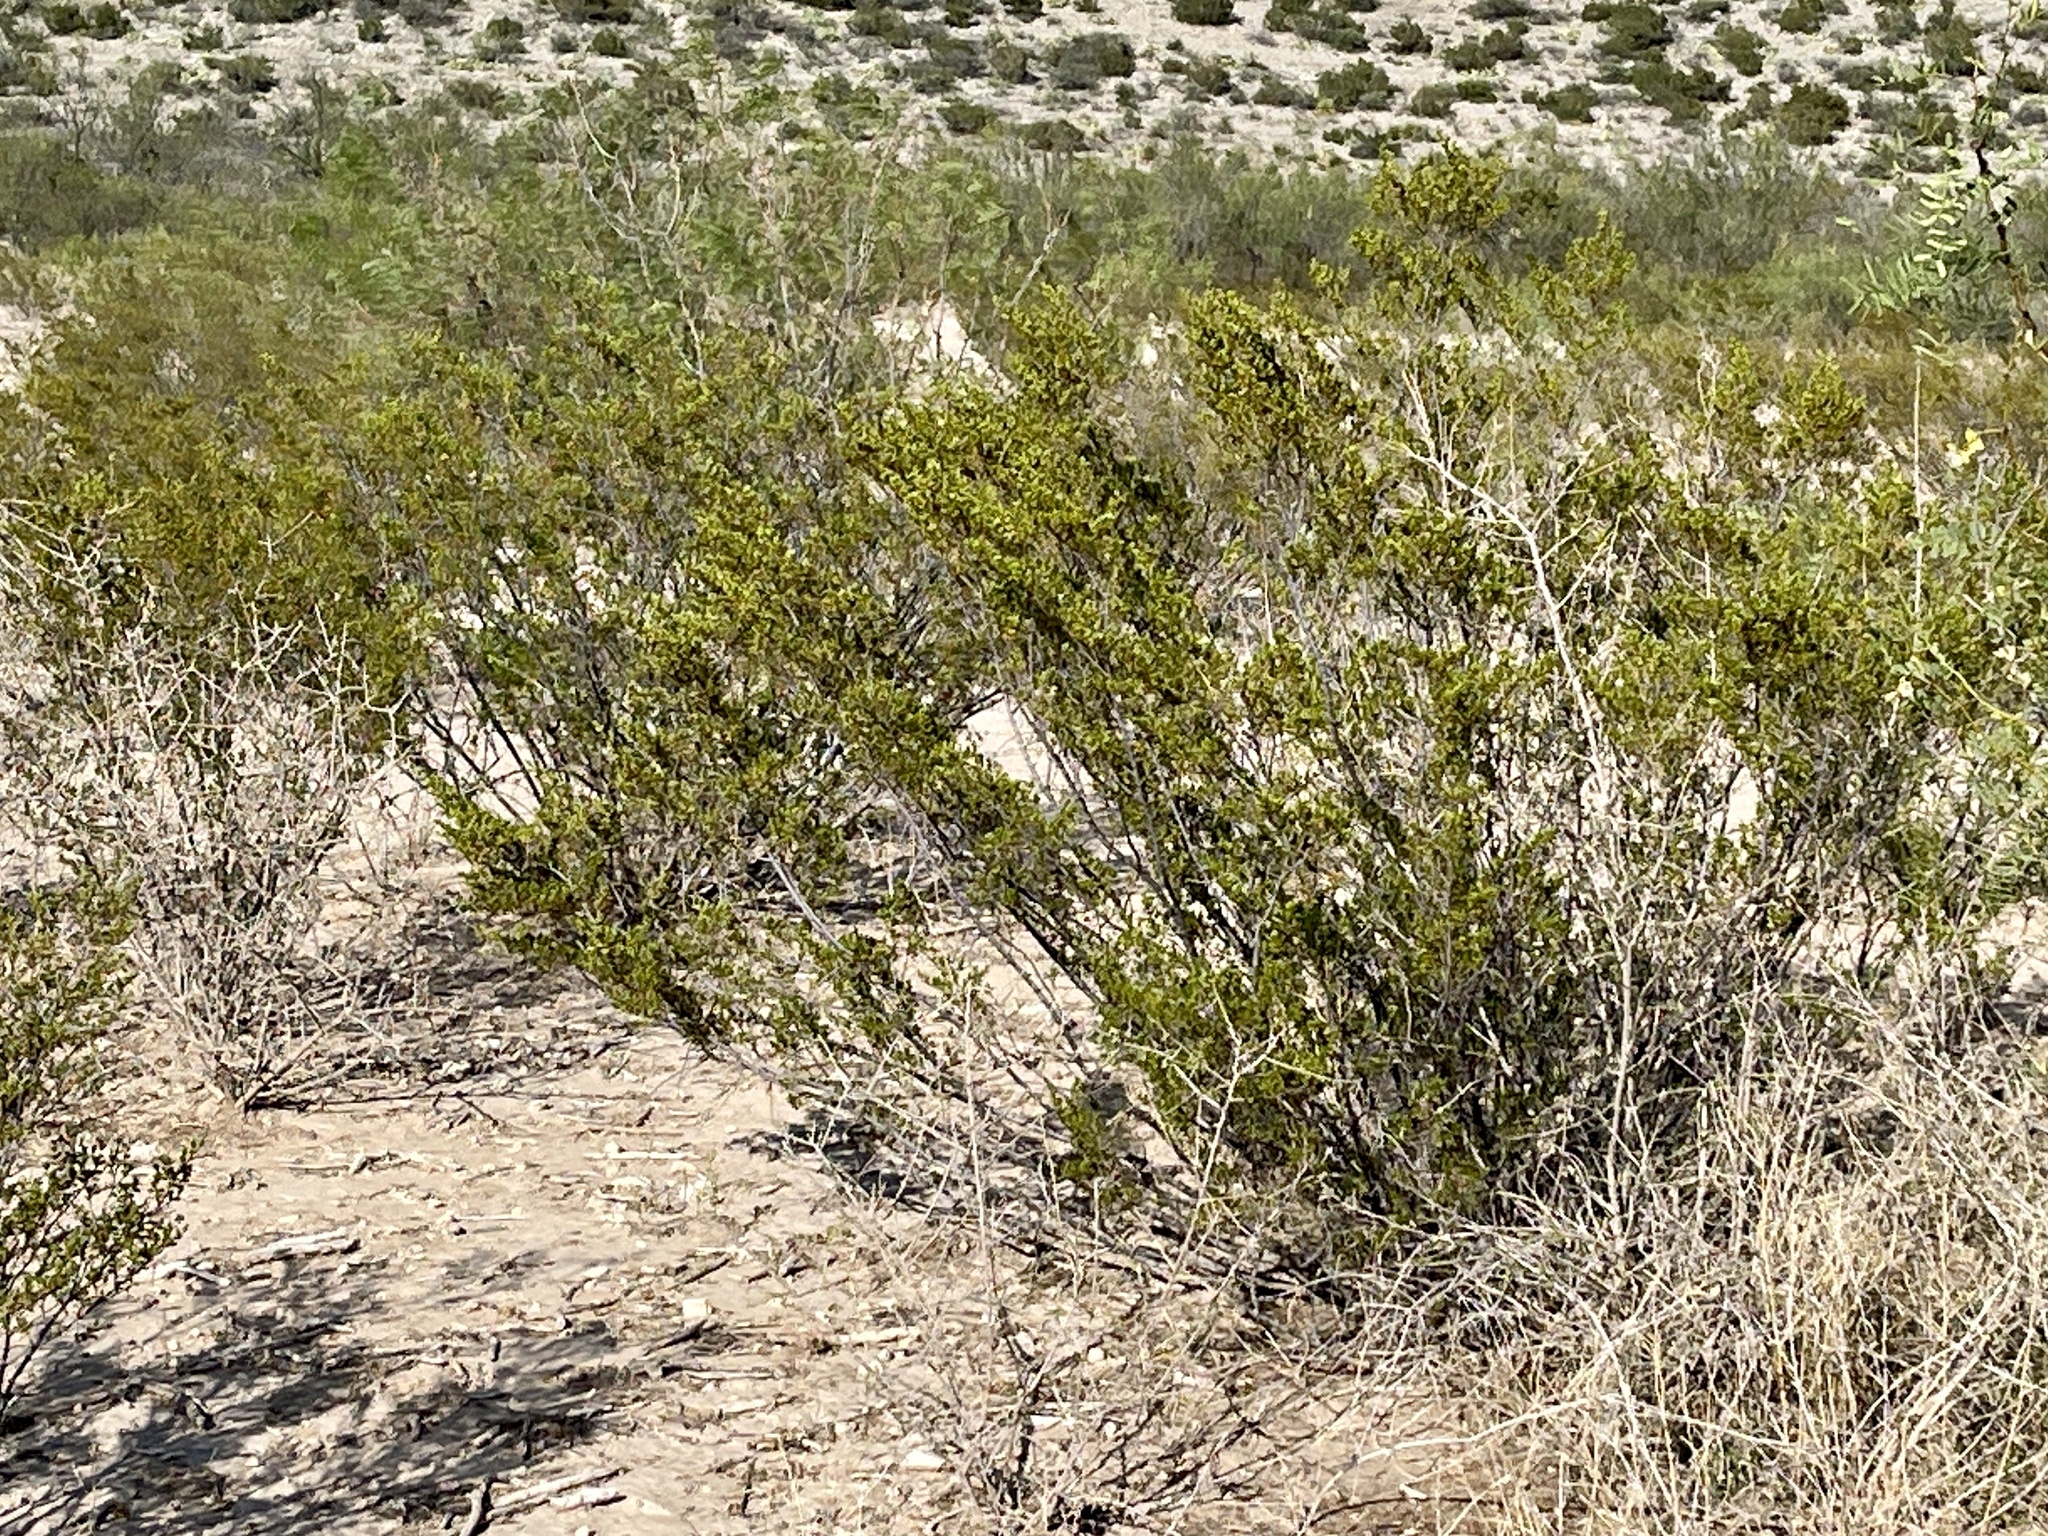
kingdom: Plantae
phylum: Tracheophyta
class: Magnoliopsida
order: Zygophyllales
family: Zygophyllaceae
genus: Larrea
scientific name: Larrea tridentata
